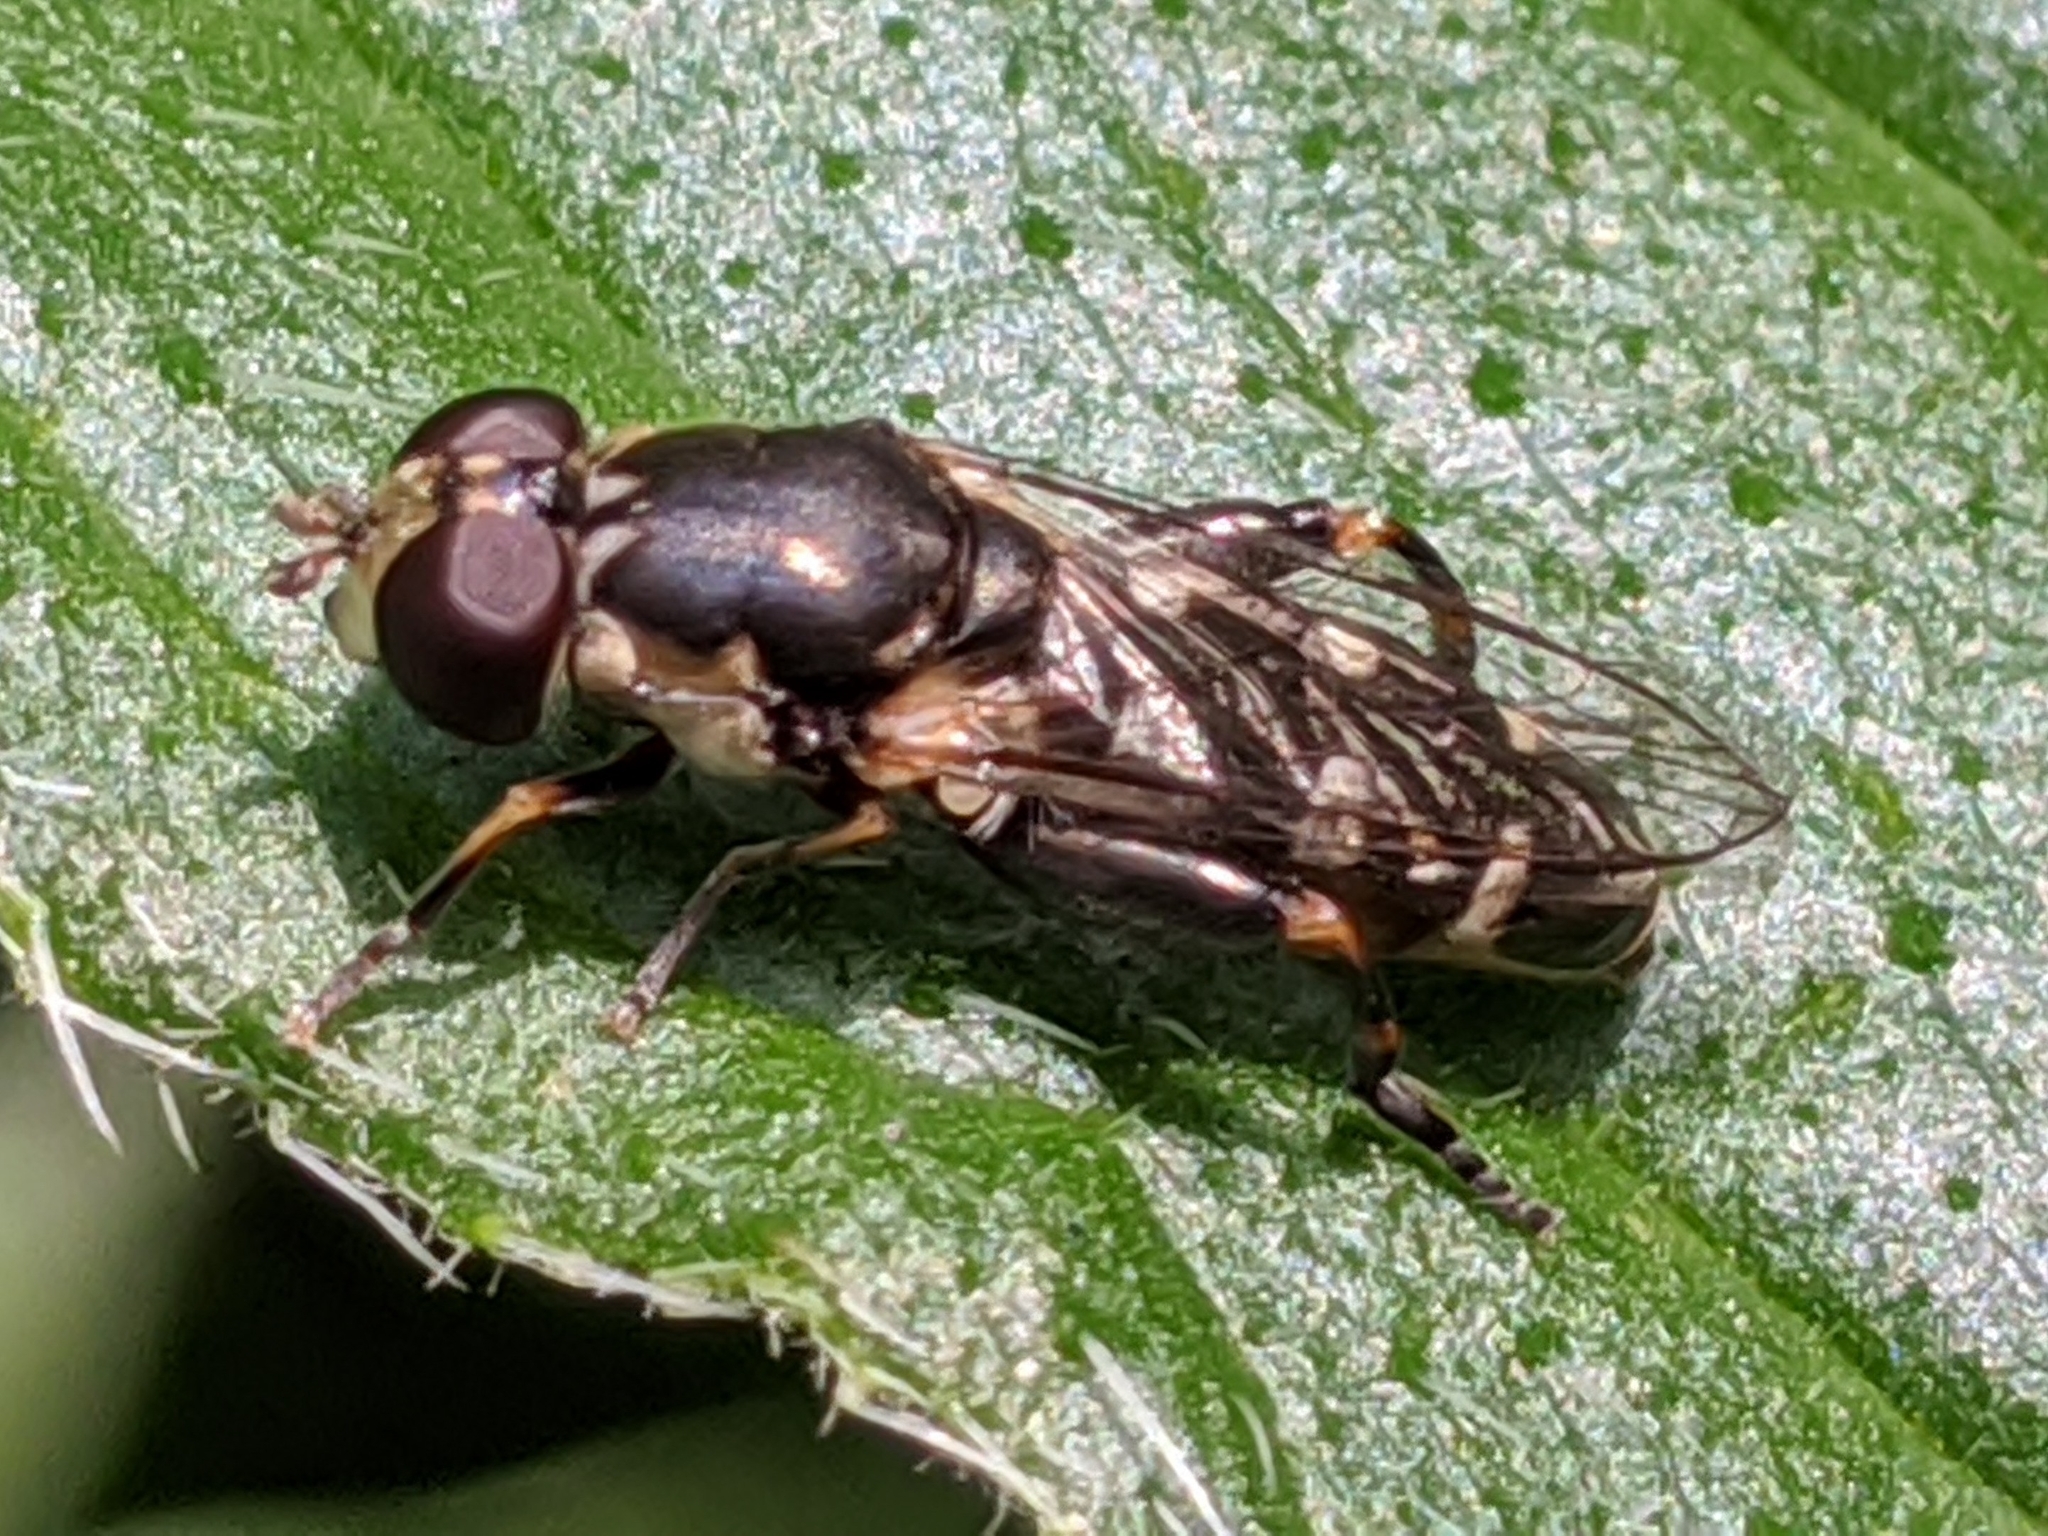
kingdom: Animalia
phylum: Arthropoda
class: Insecta
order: Diptera
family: Syrphidae
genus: Syritta
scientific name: Syritta pipiens
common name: Hover fly
